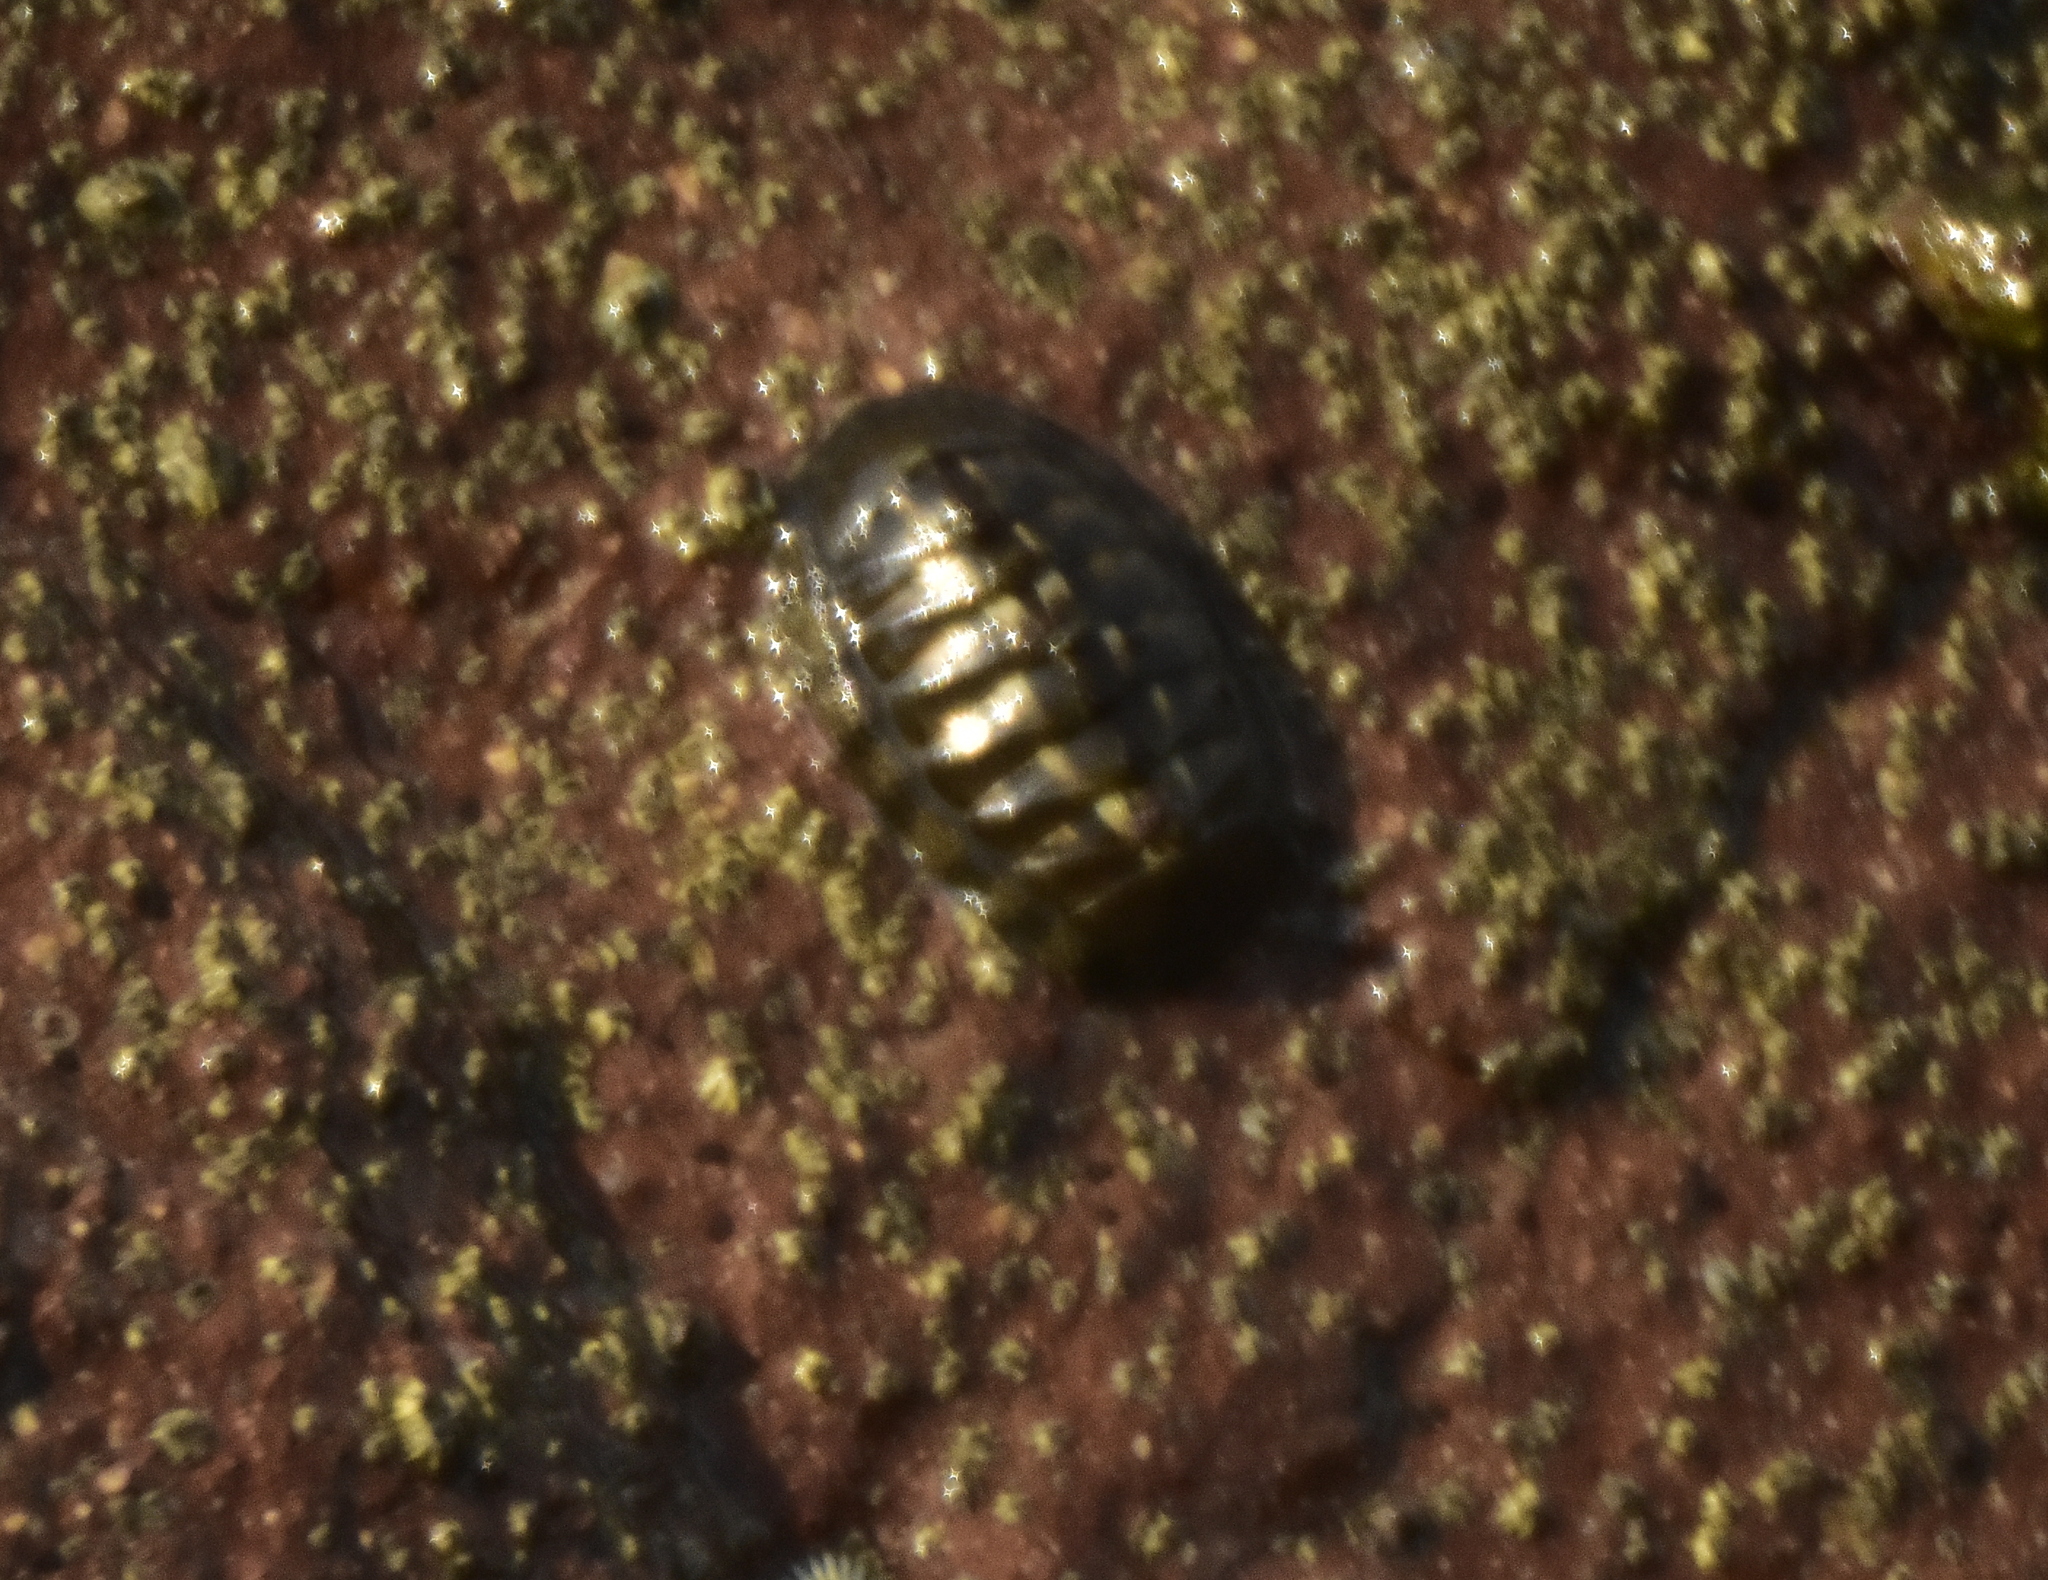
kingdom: Animalia
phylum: Mollusca
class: Polyplacophora
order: Chitonida
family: Chitonidae
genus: Chiton
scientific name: Chiton articulatus
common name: Smooth panama chiton
